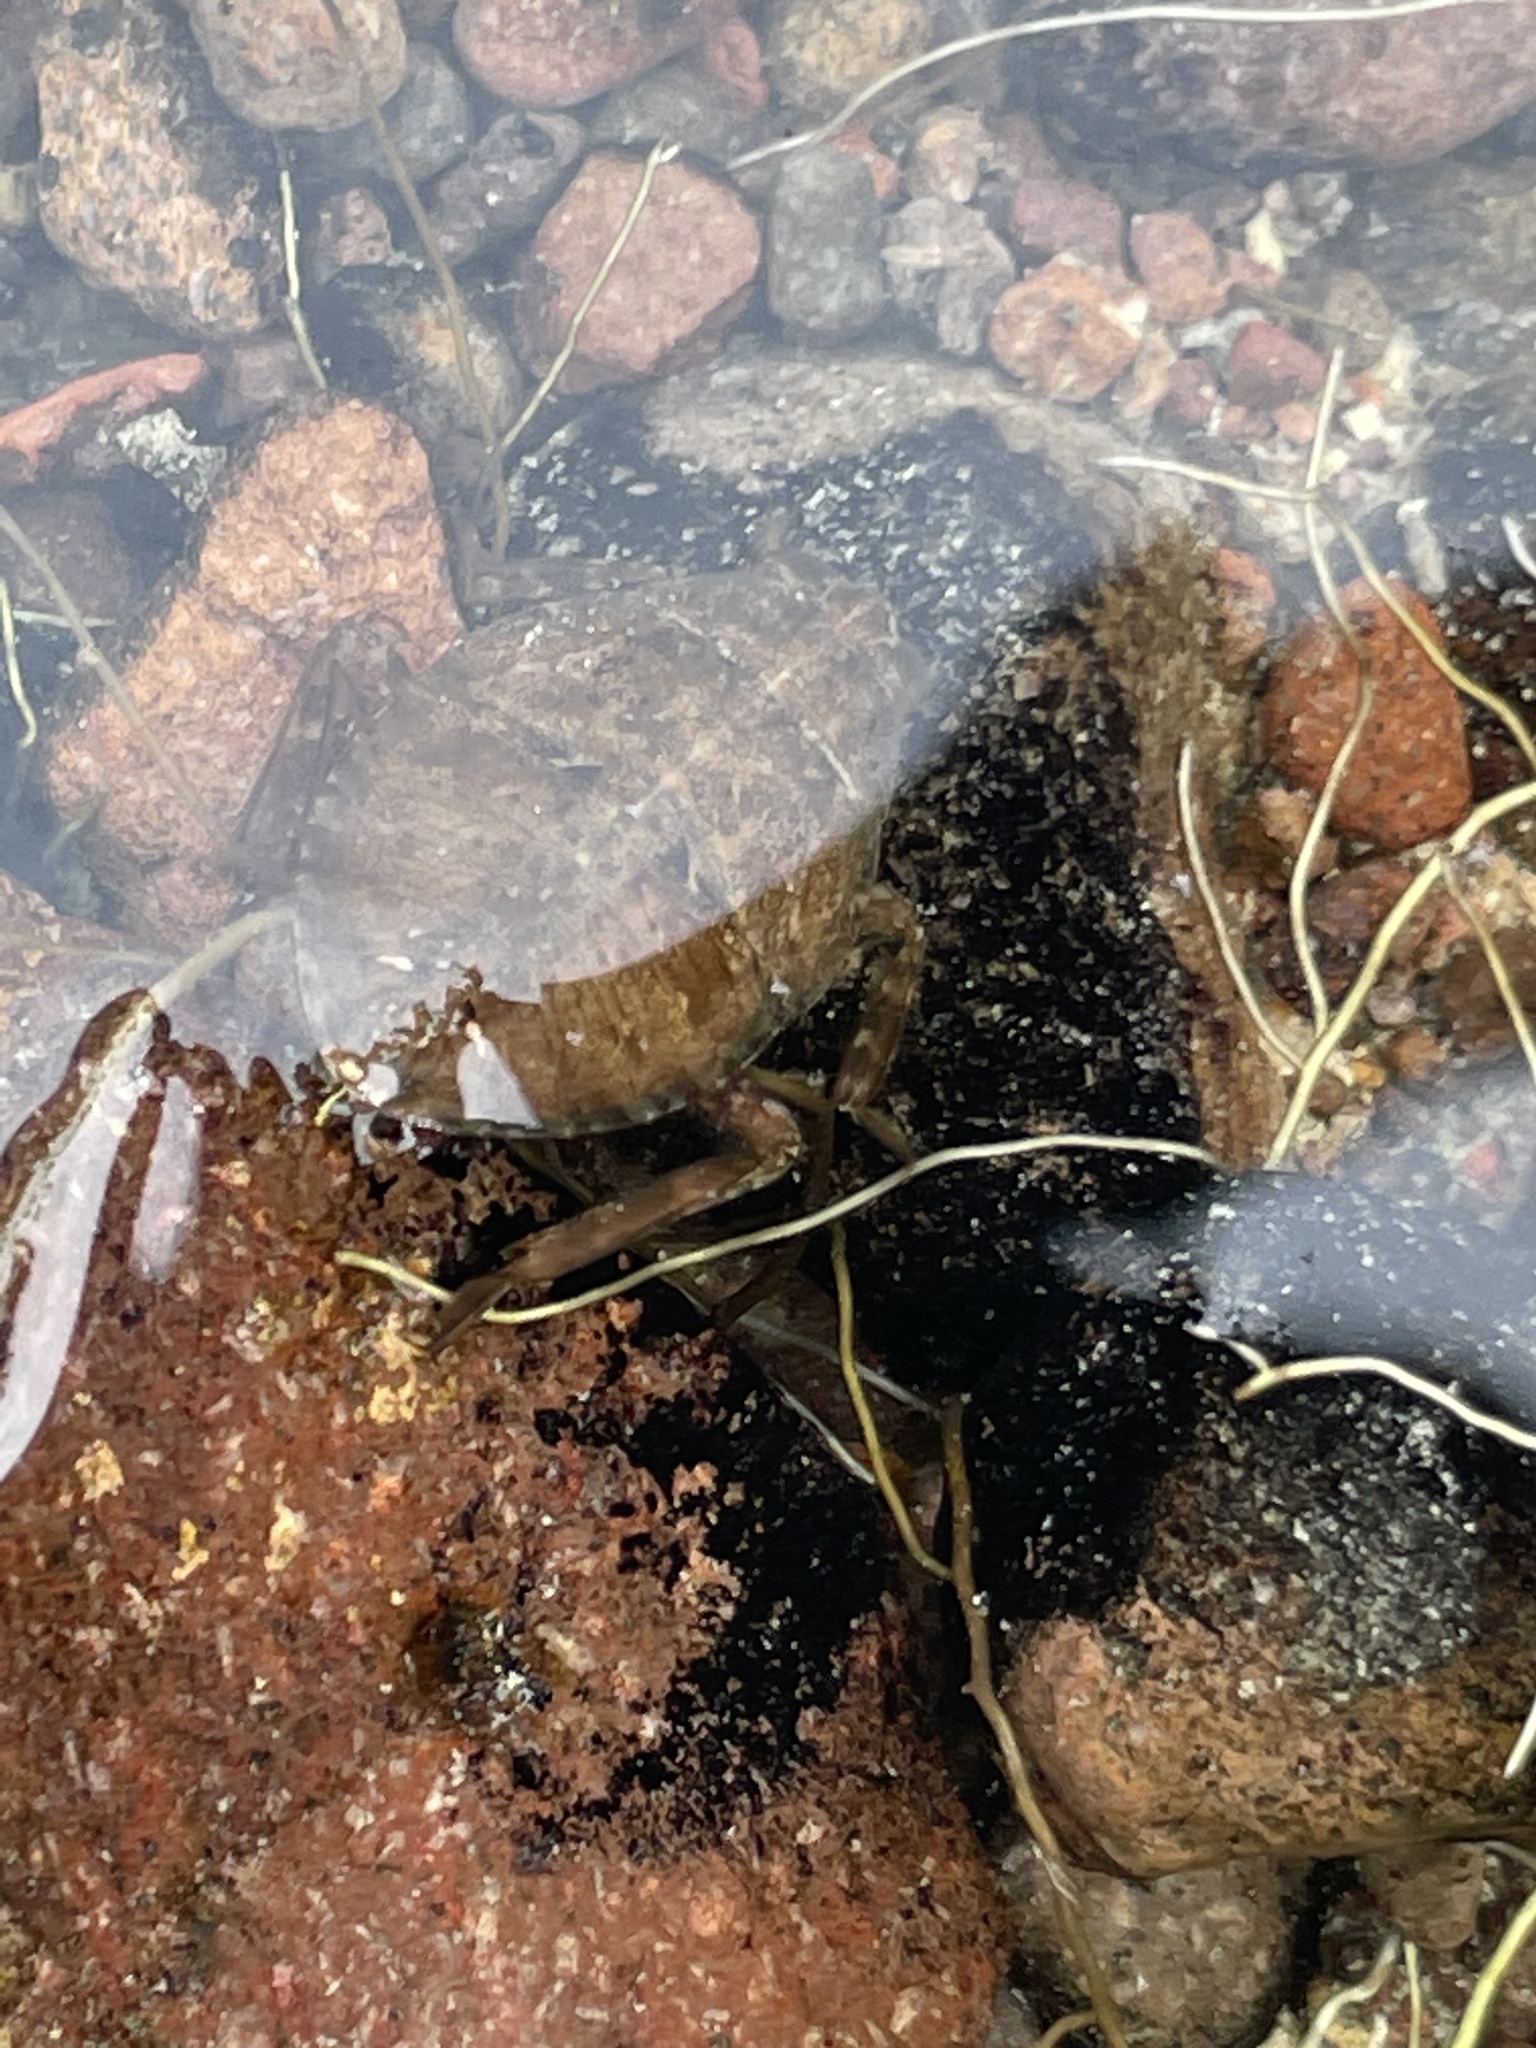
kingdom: Animalia
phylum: Arthropoda
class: Insecta
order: Hemiptera
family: Belostomatidae
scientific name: Belostomatidae
